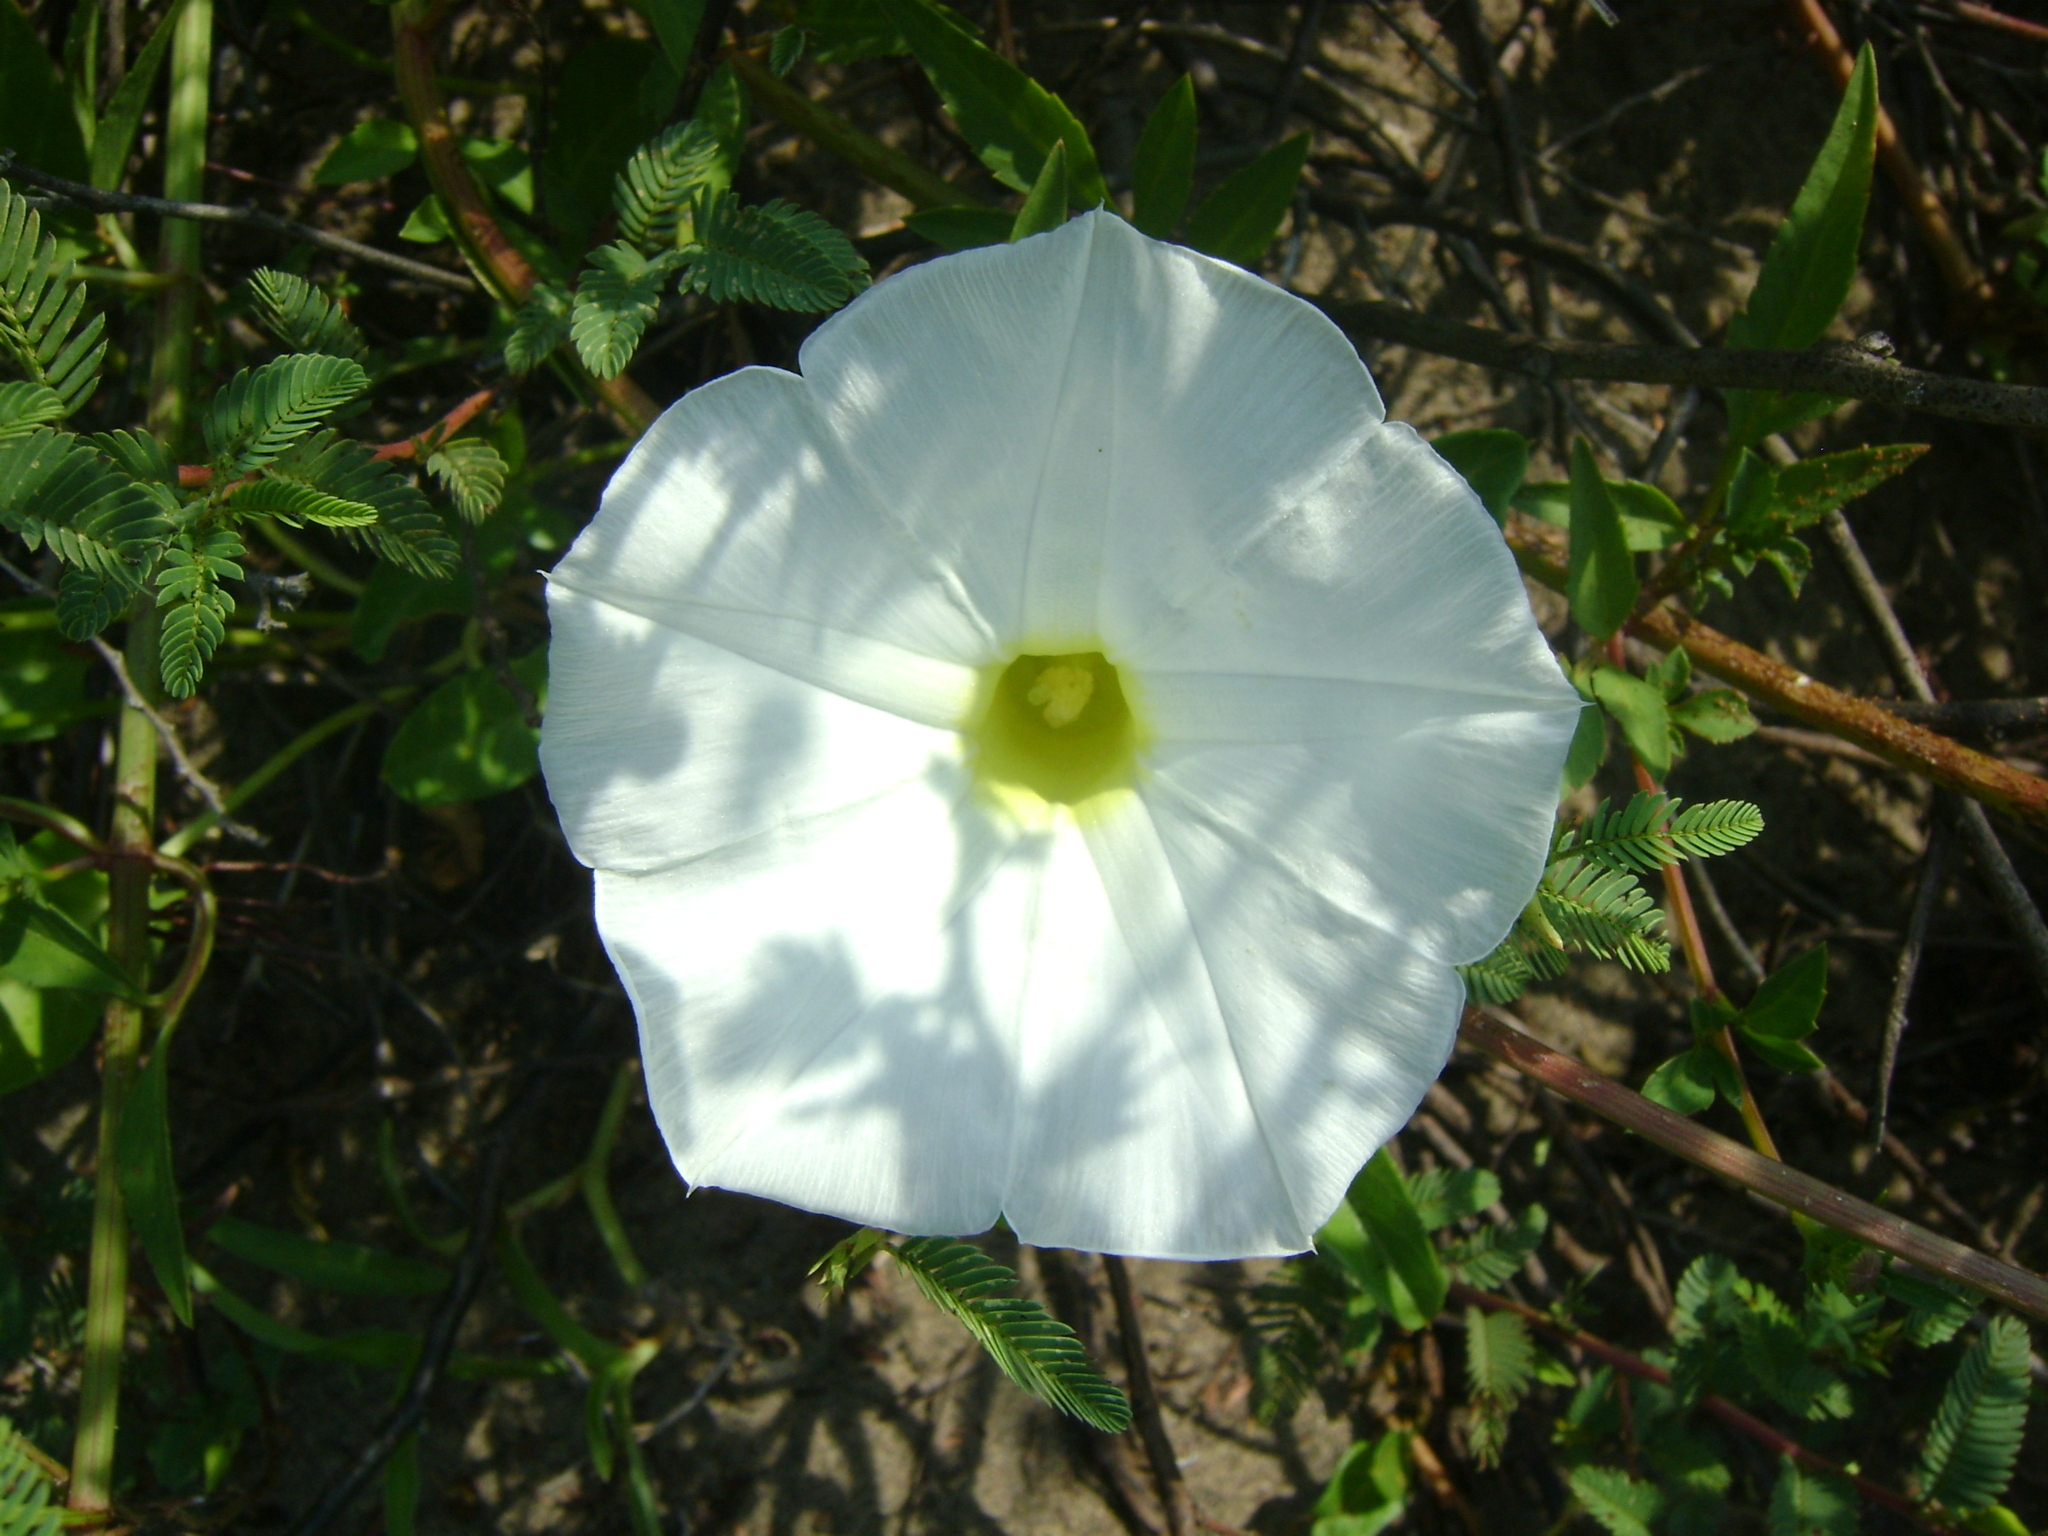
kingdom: Plantae
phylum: Tracheophyta
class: Magnoliopsida
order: Solanales
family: Convolvulaceae
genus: Ipomoea
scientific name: Ipomoea imperati
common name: Fiddle-leaf morning-glory
